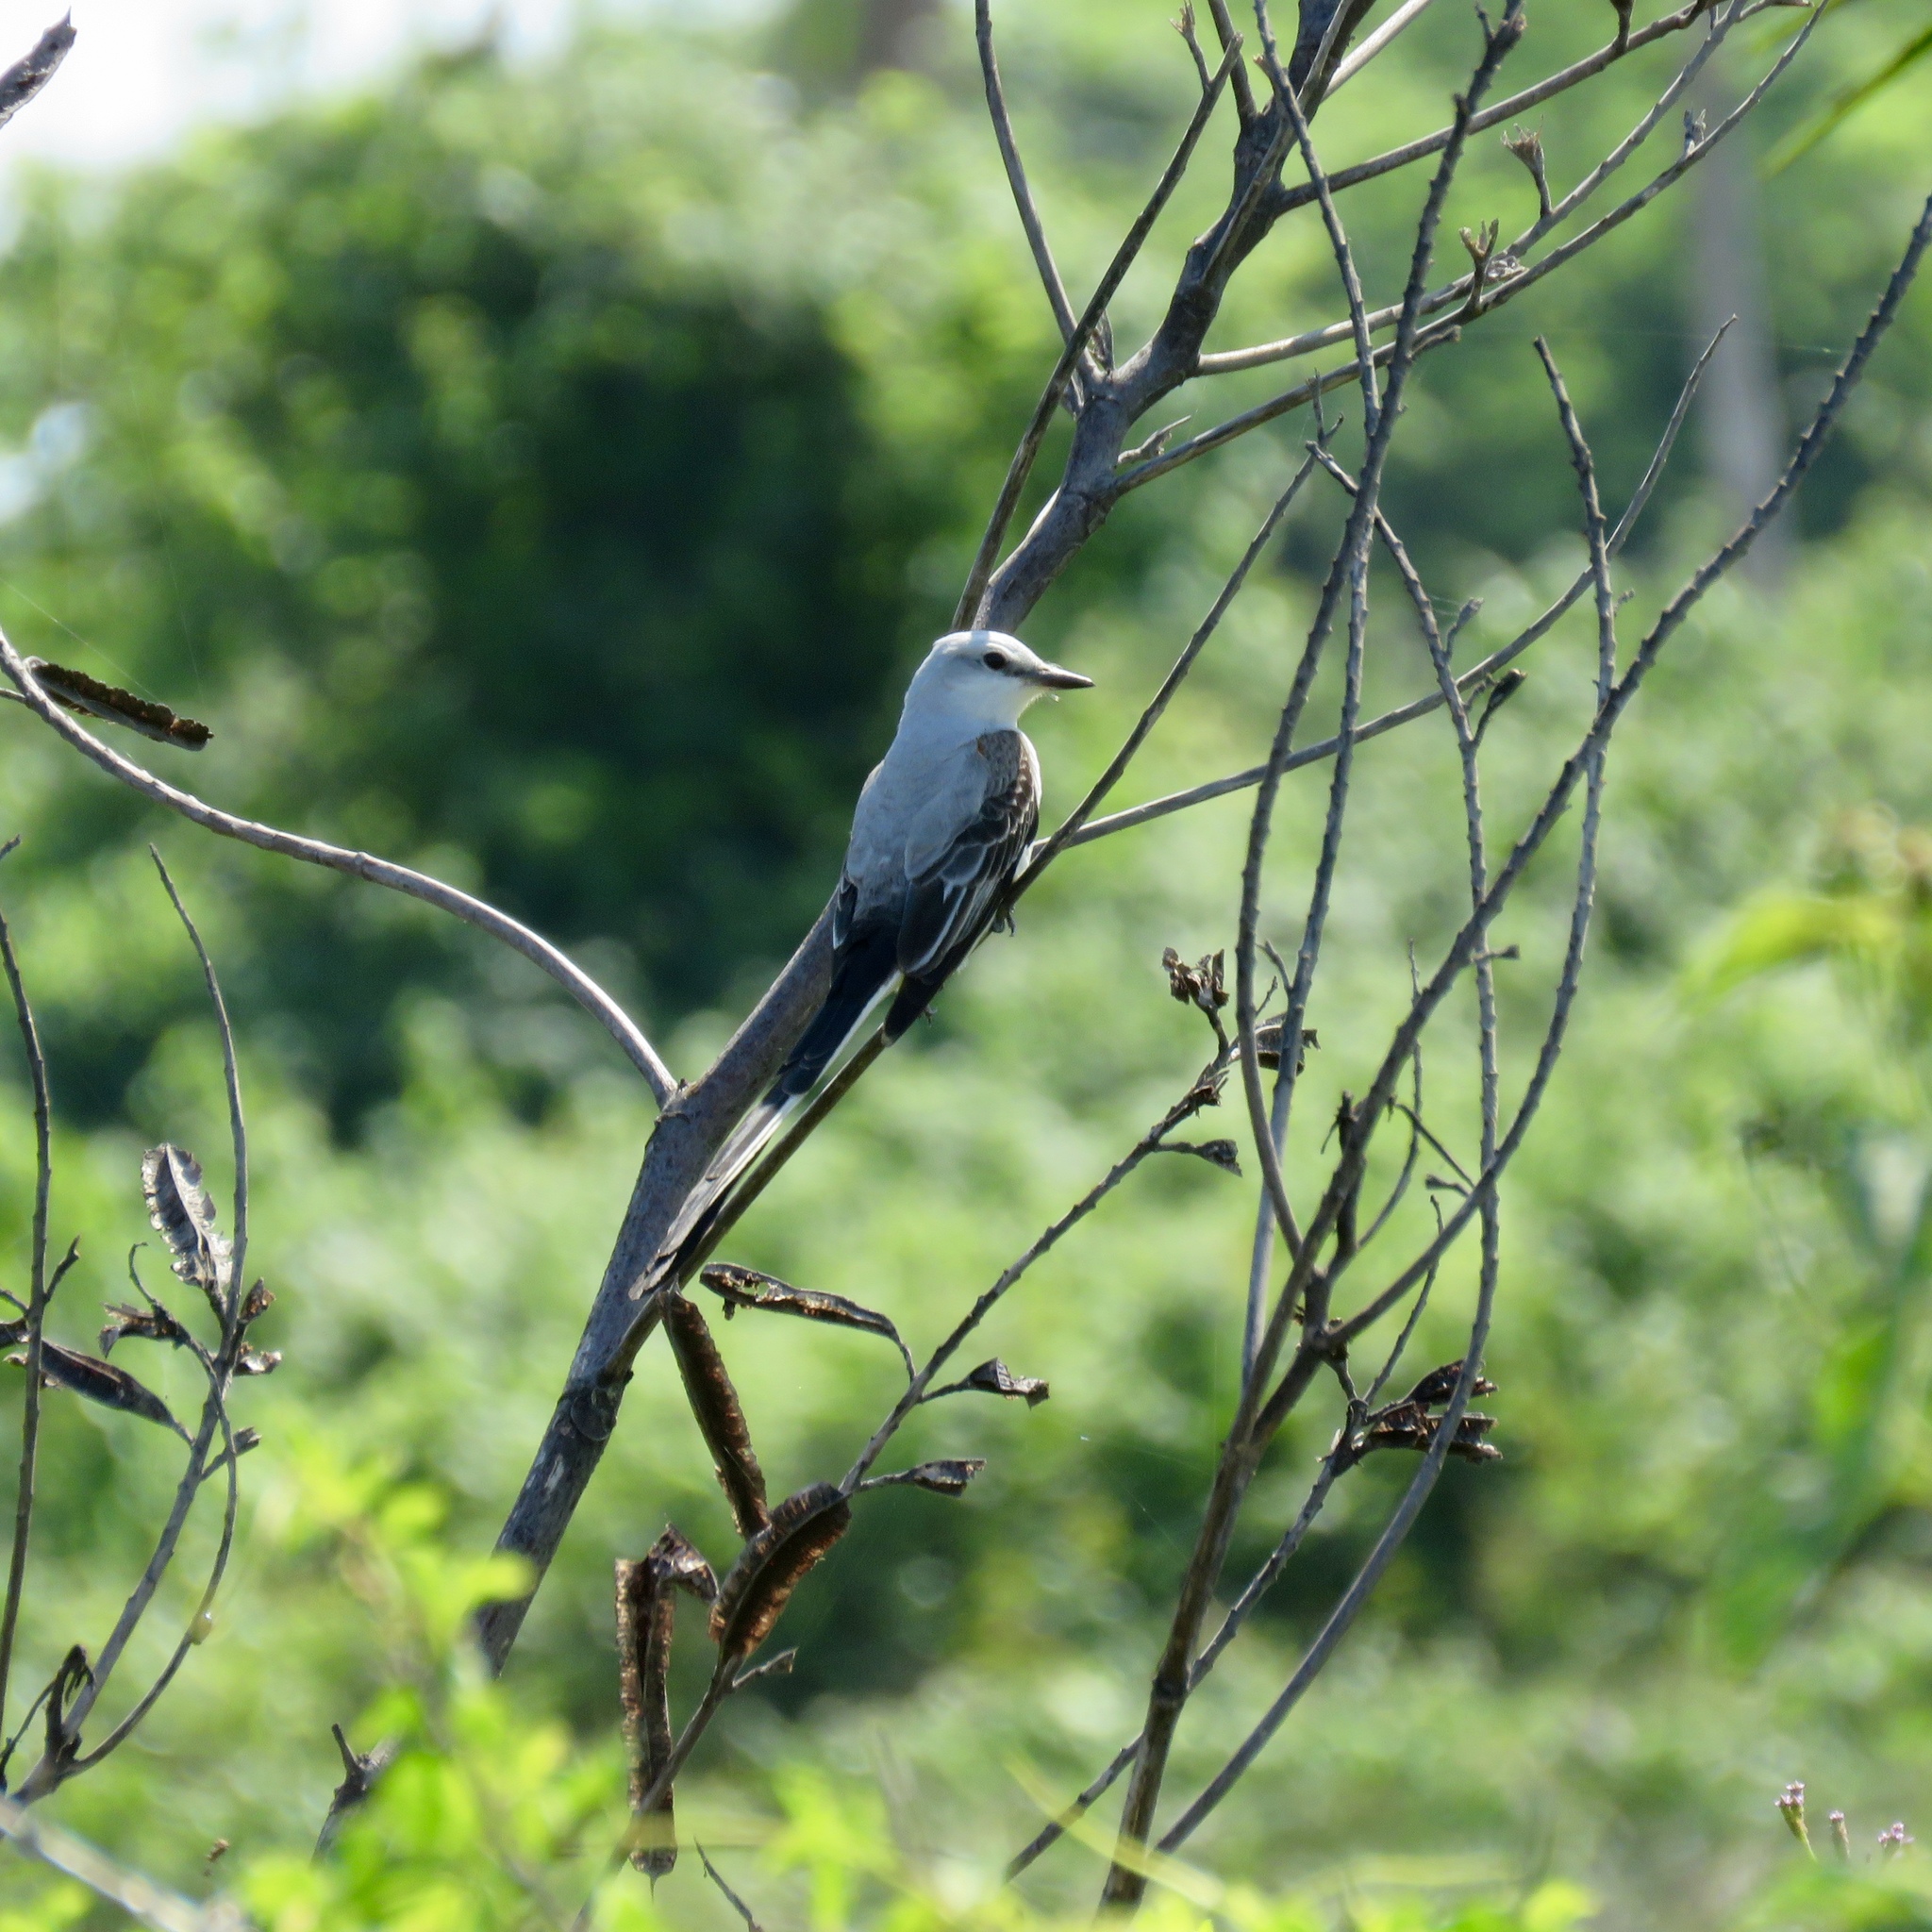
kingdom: Animalia
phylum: Chordata
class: Aves
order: Passeriformes
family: Tyrannidae
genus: Tyrannus
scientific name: Tyrannus forficatus
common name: Scissor-tailed flycatcher
